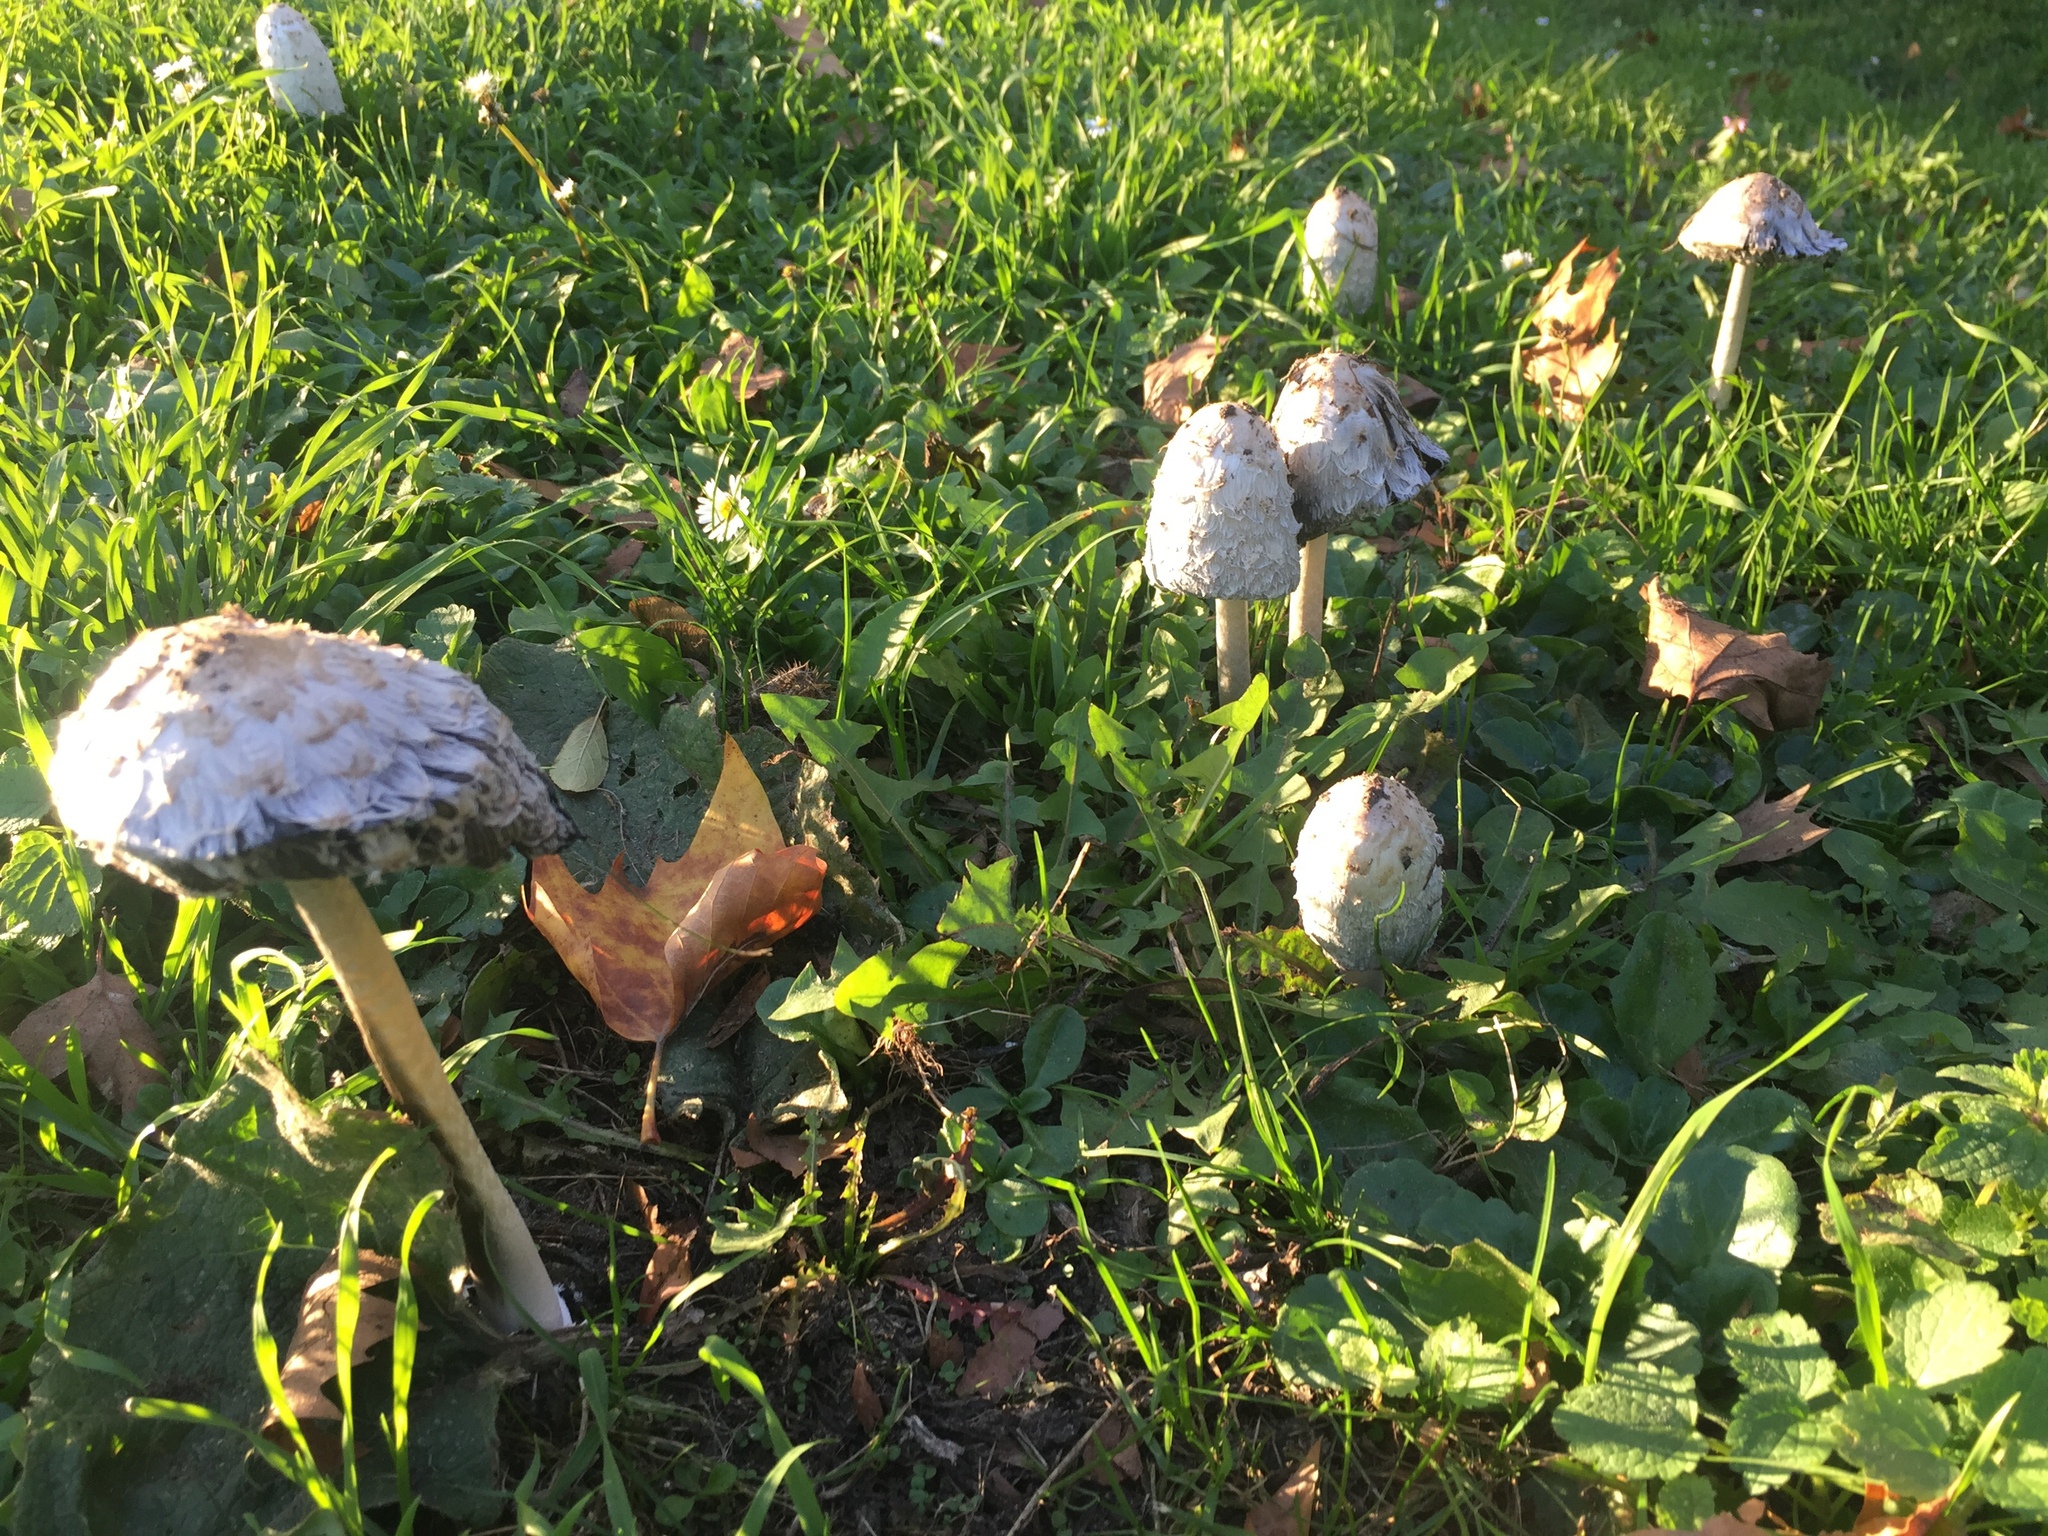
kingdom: Fungi
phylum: Basidiomycota
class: Agaricomycetes
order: Agaricales
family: Agaricaceae
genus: Coprinus
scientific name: Coprinus comatus
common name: Lawyer's wig
